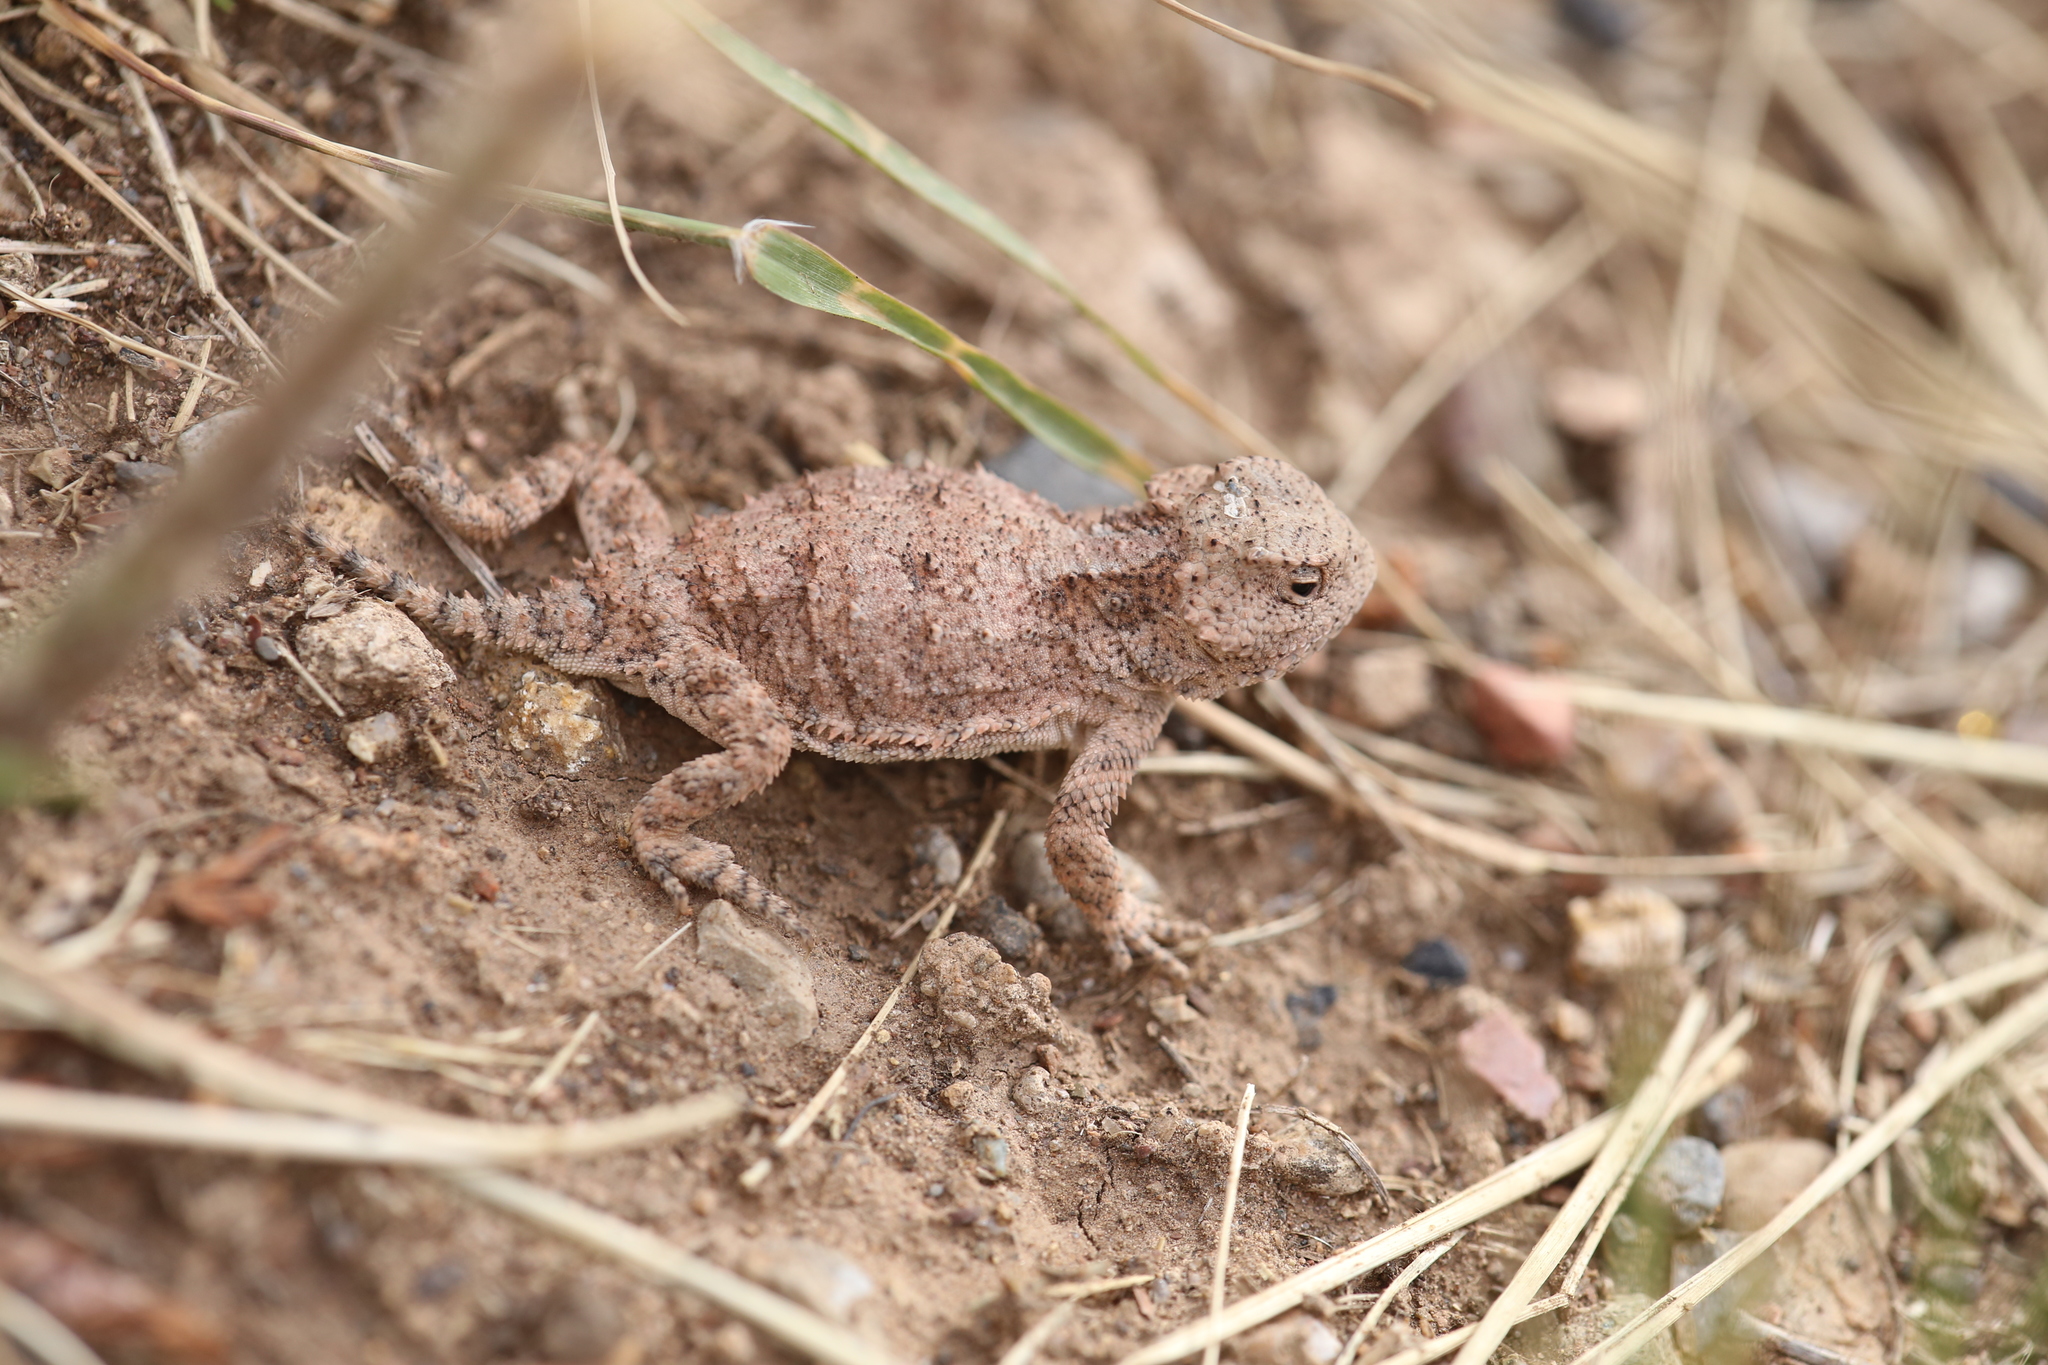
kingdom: Animalia
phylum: Chordata
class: Squamata
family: Phrynosomatidae
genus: Phrynosoma
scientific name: Phrynosoma hernandesi
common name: Greater short-horned lizard
